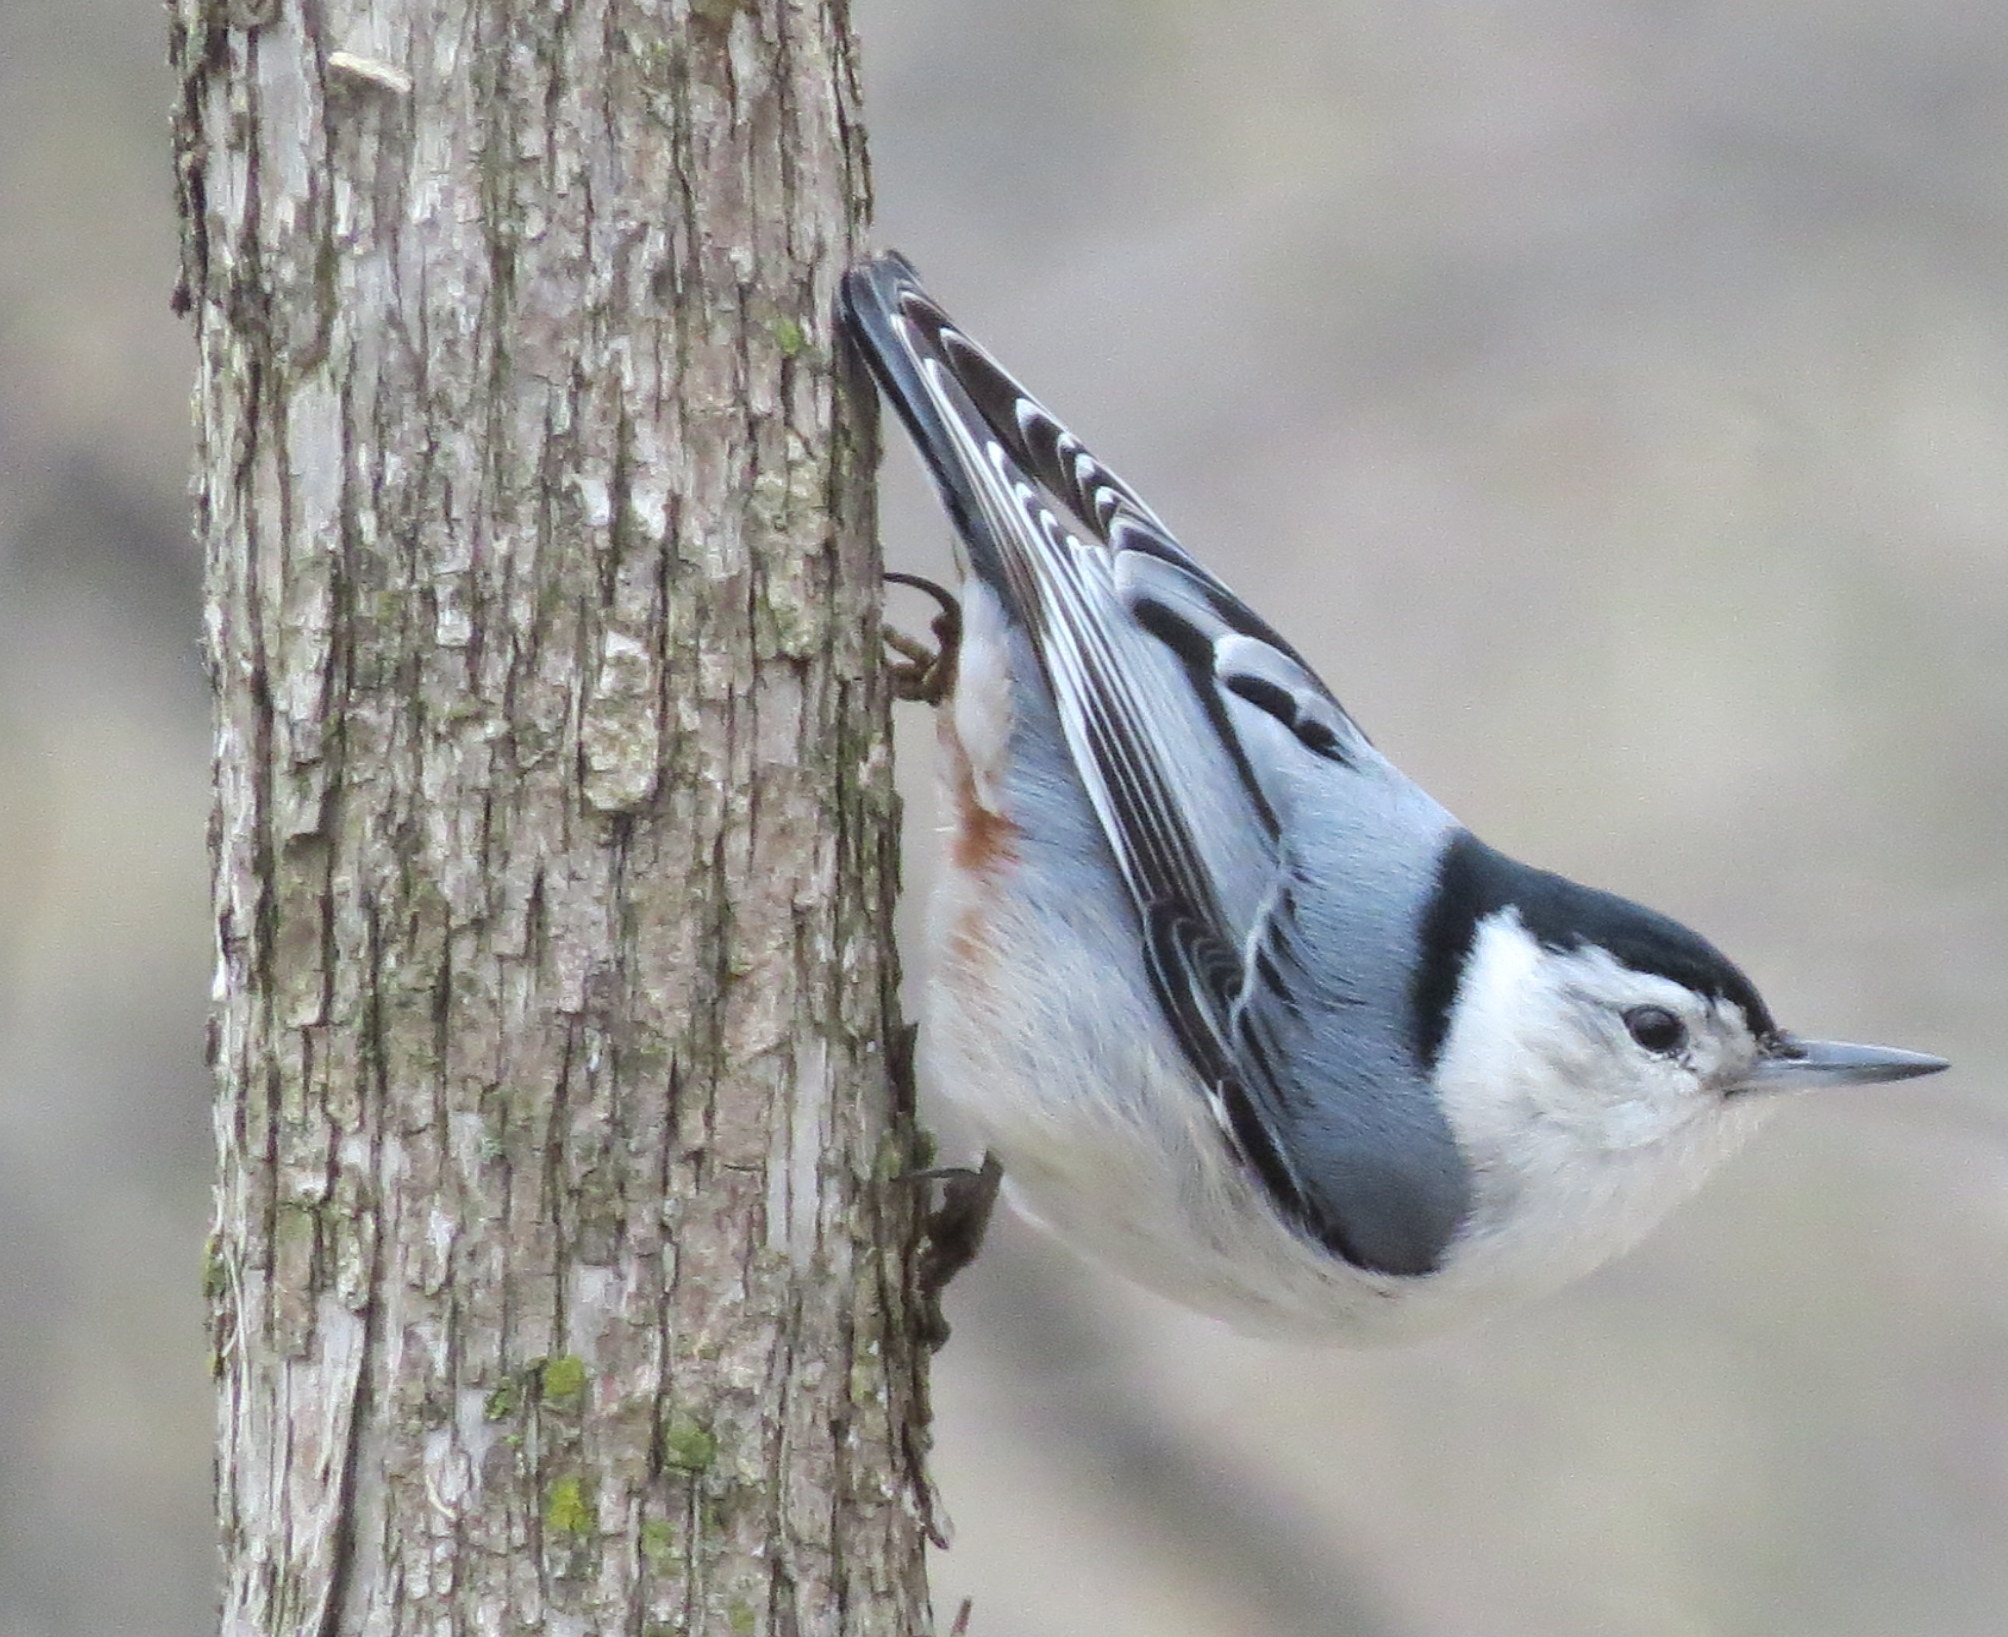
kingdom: Animalia
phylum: Chordata
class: Aves
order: Passeriformes
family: Sittidae
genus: Sitta
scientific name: Sitta carolinensis
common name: White-breasted nuthatch
